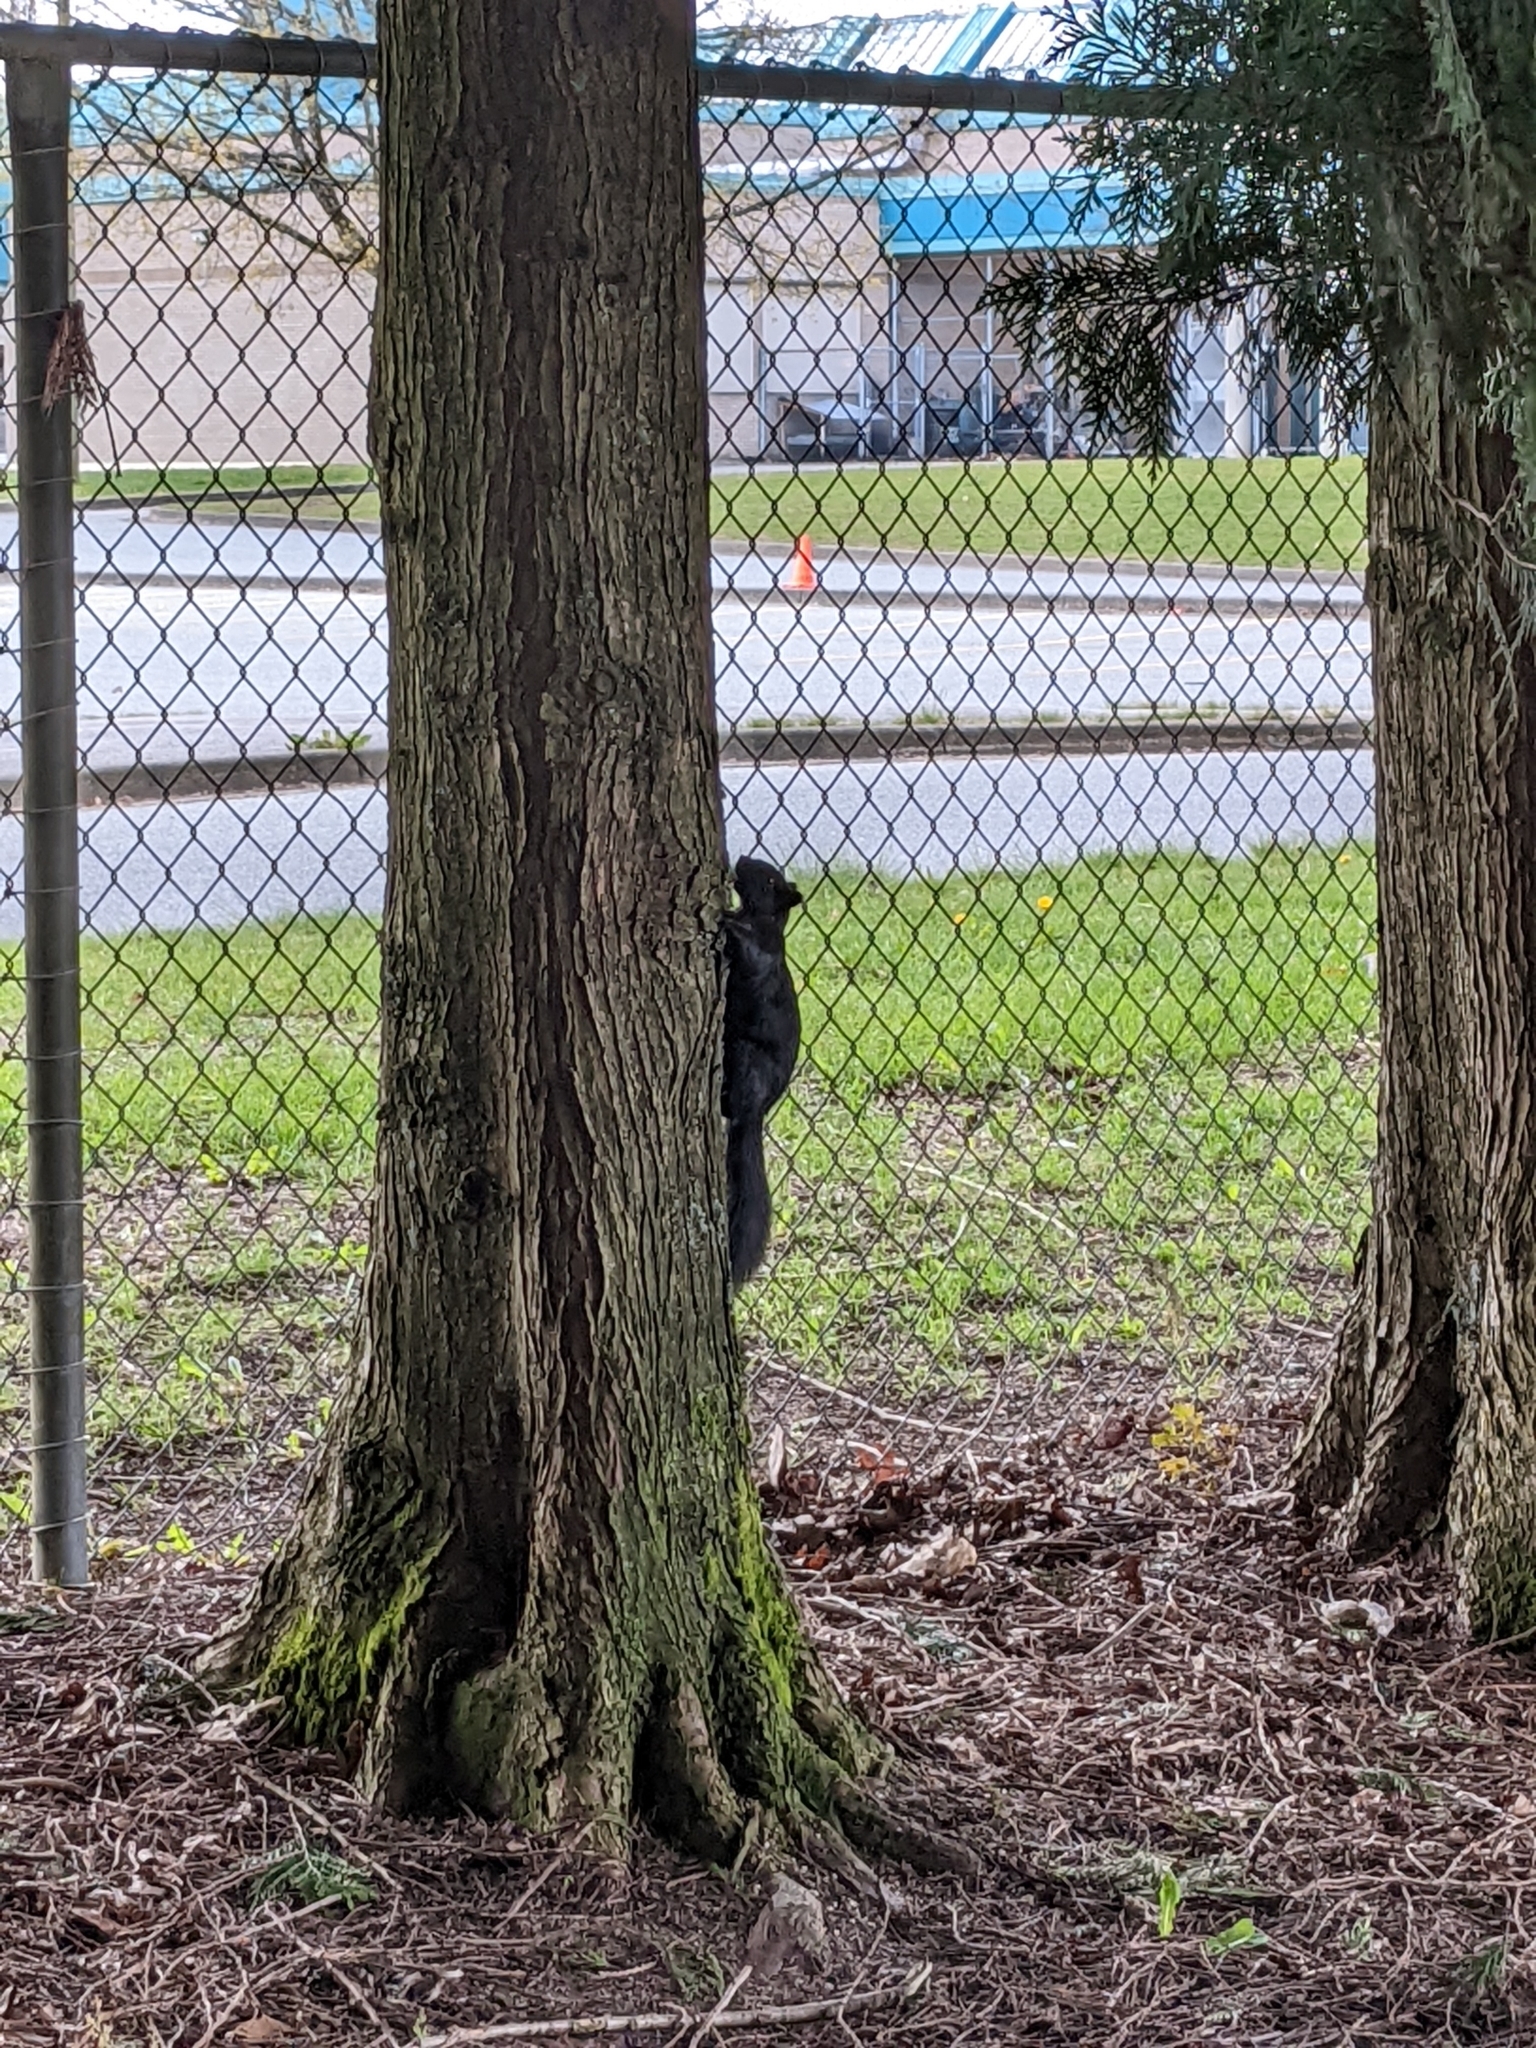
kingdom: Animalia
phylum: Chordata
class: Mammalia
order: Rodentia
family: Sciuridae
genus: Sciurus
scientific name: Sciurus carolinensis
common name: Eastern gray squirrel
